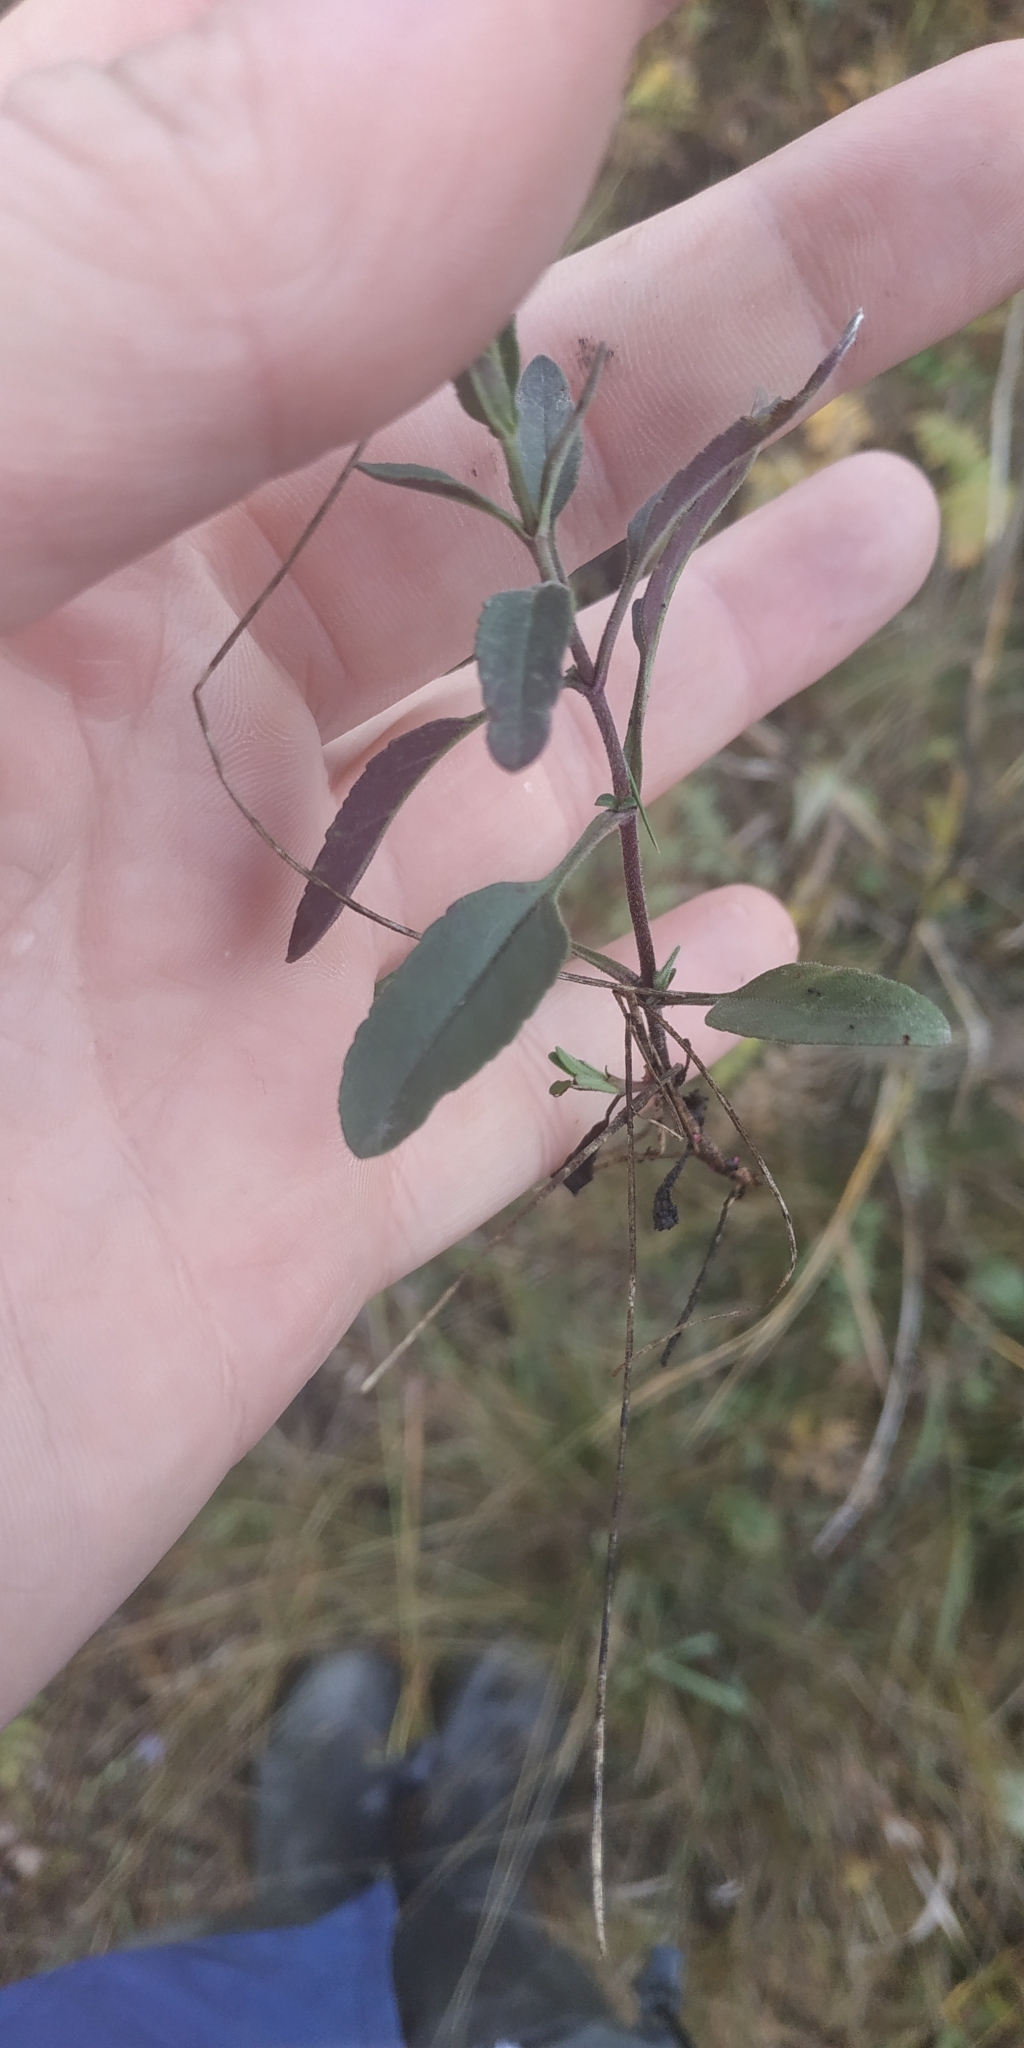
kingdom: Plantae
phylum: Tracheophyta
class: Magnoliopsida
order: Lamiales
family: Plantaginaceae
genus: Veronica
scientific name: Veronica spicata
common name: Spiked speedwell
